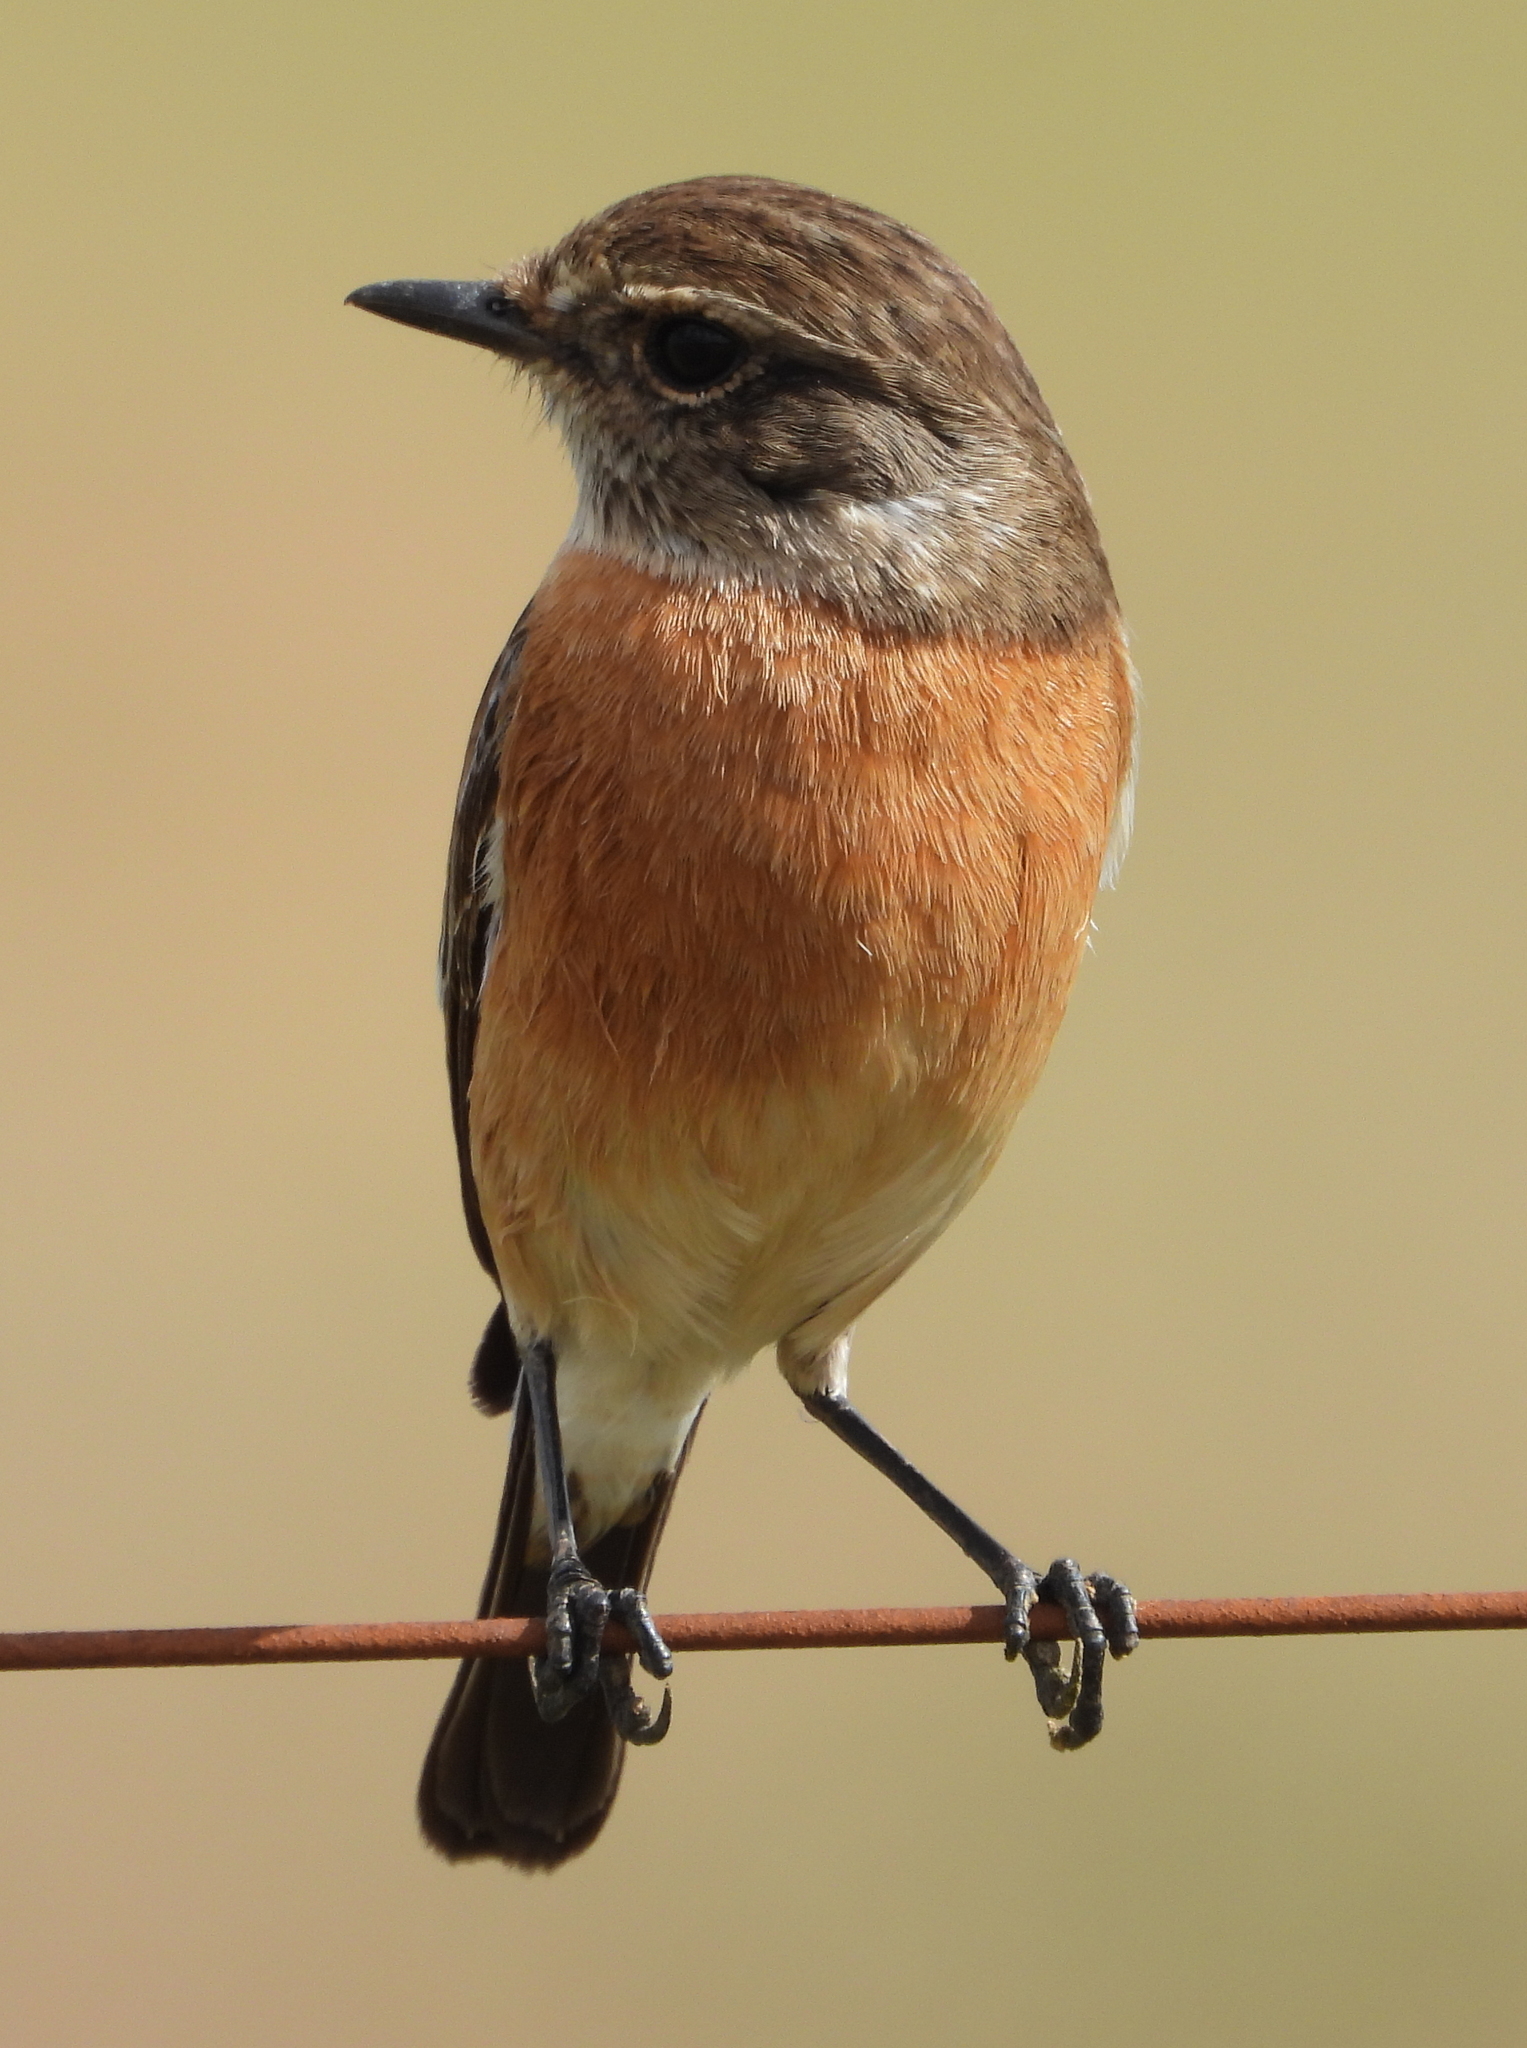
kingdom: Animalia
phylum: Chordata
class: Aves
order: Passeriformes
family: Muscicapidae
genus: Saxicola
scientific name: Saxicola torquatus
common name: African stonechat
